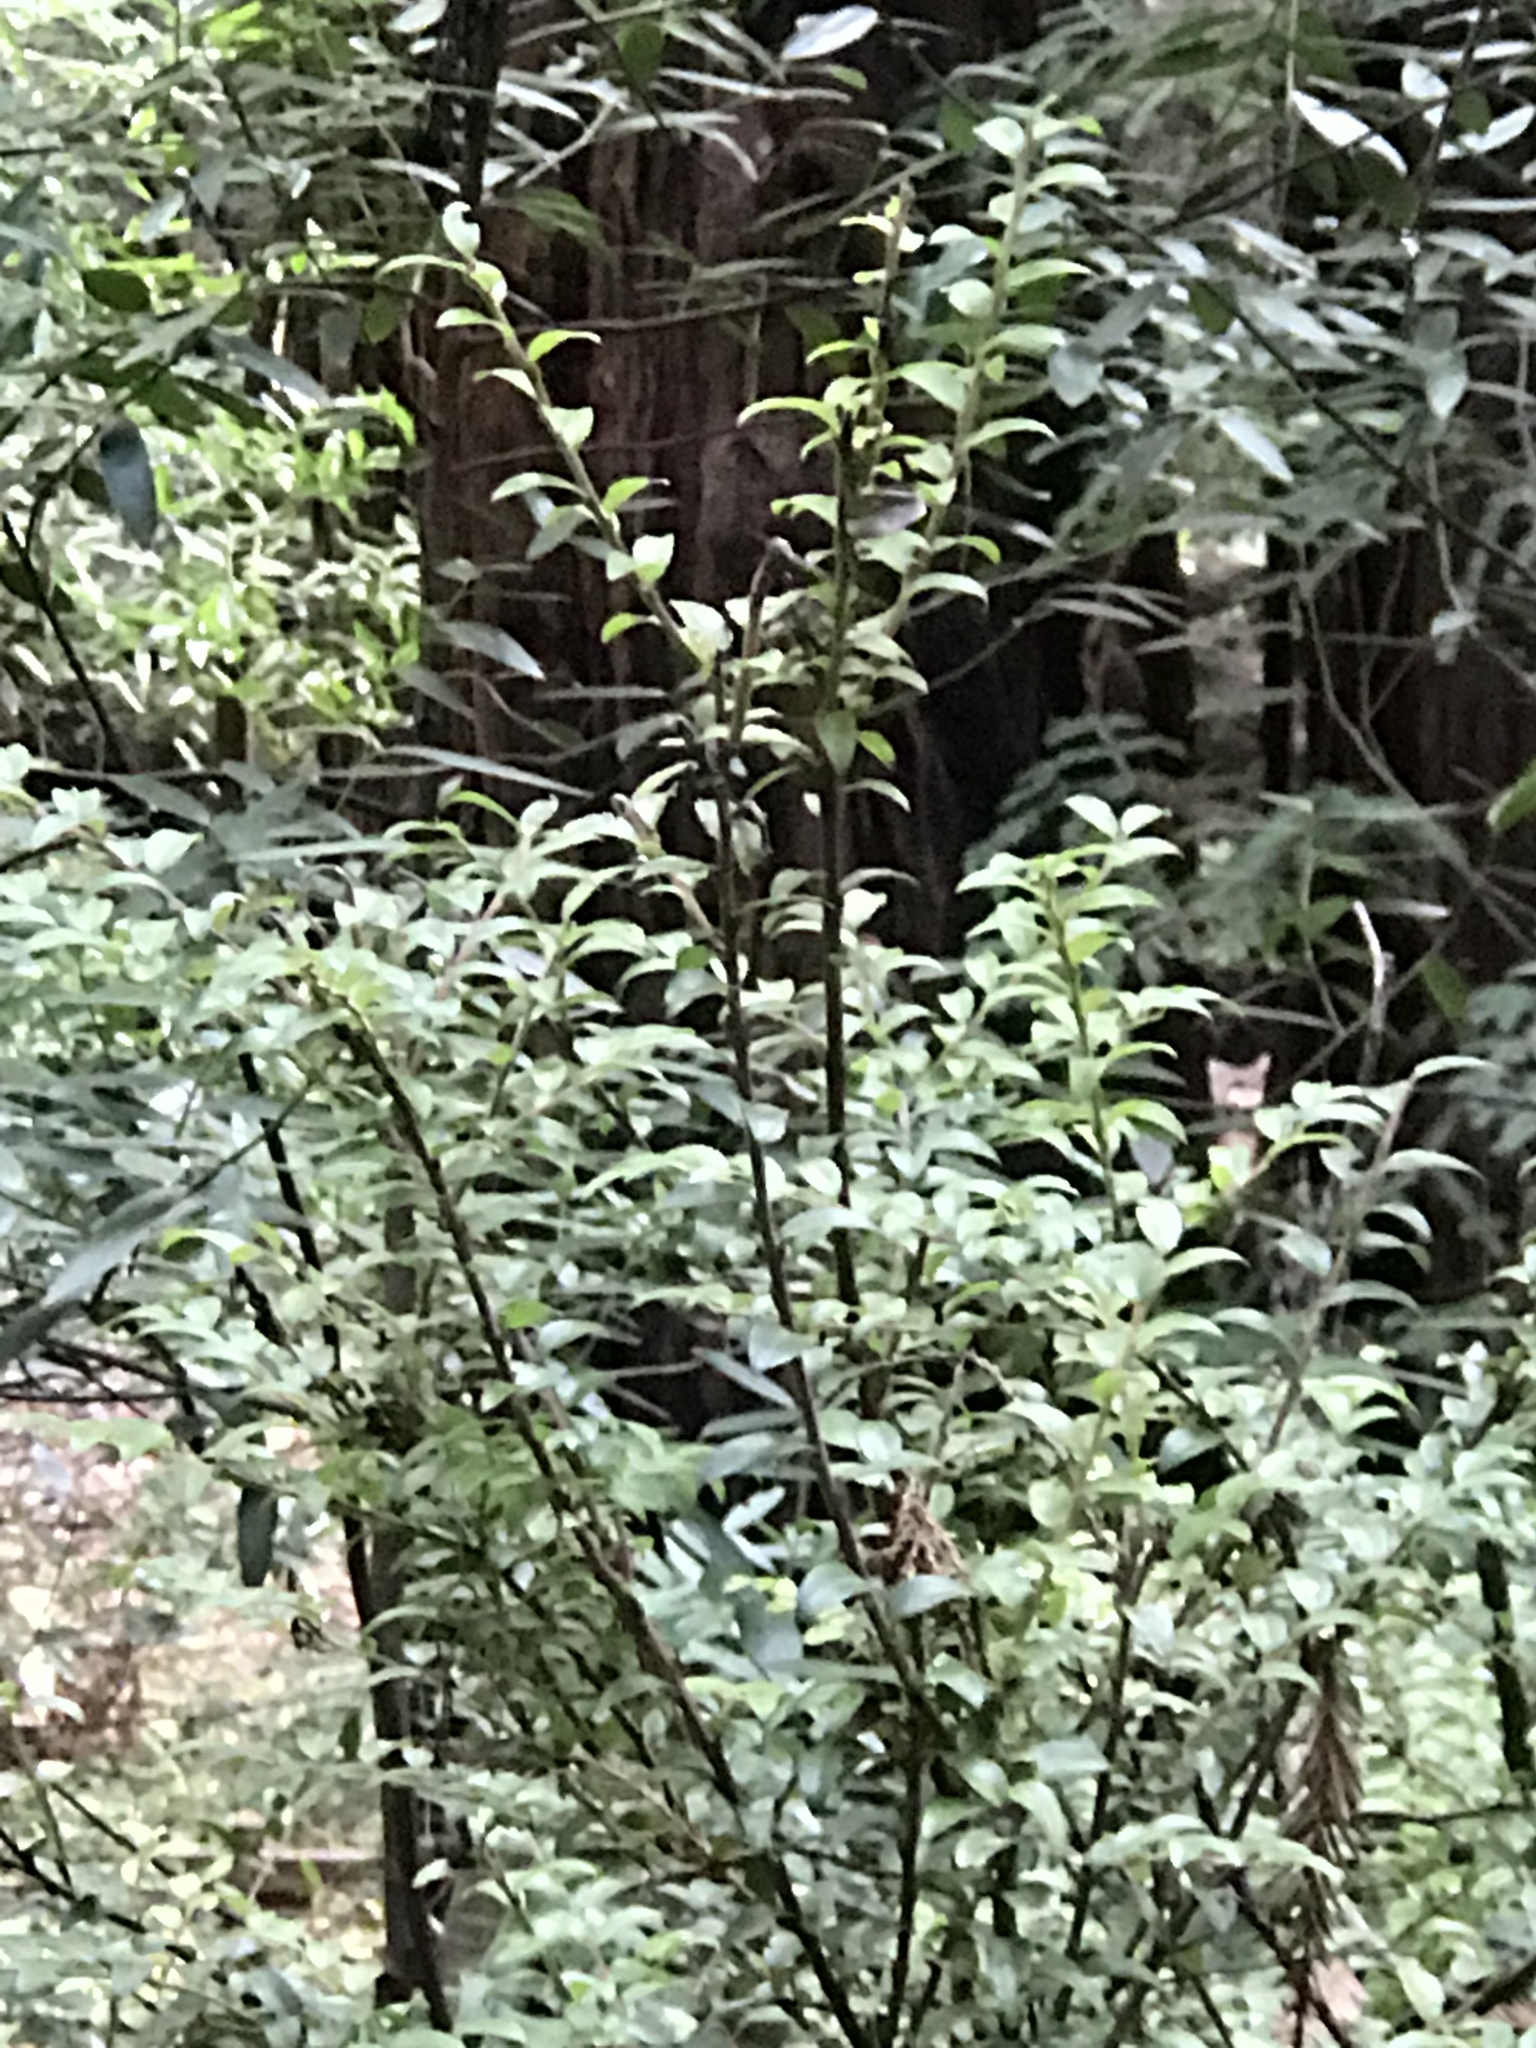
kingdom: Plantae
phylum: Tracheophyta
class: Magnoliopsida
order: Ericales
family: Ericaceae
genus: Vaccinium
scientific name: Vaccinium ovatum
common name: California-huckleberry
